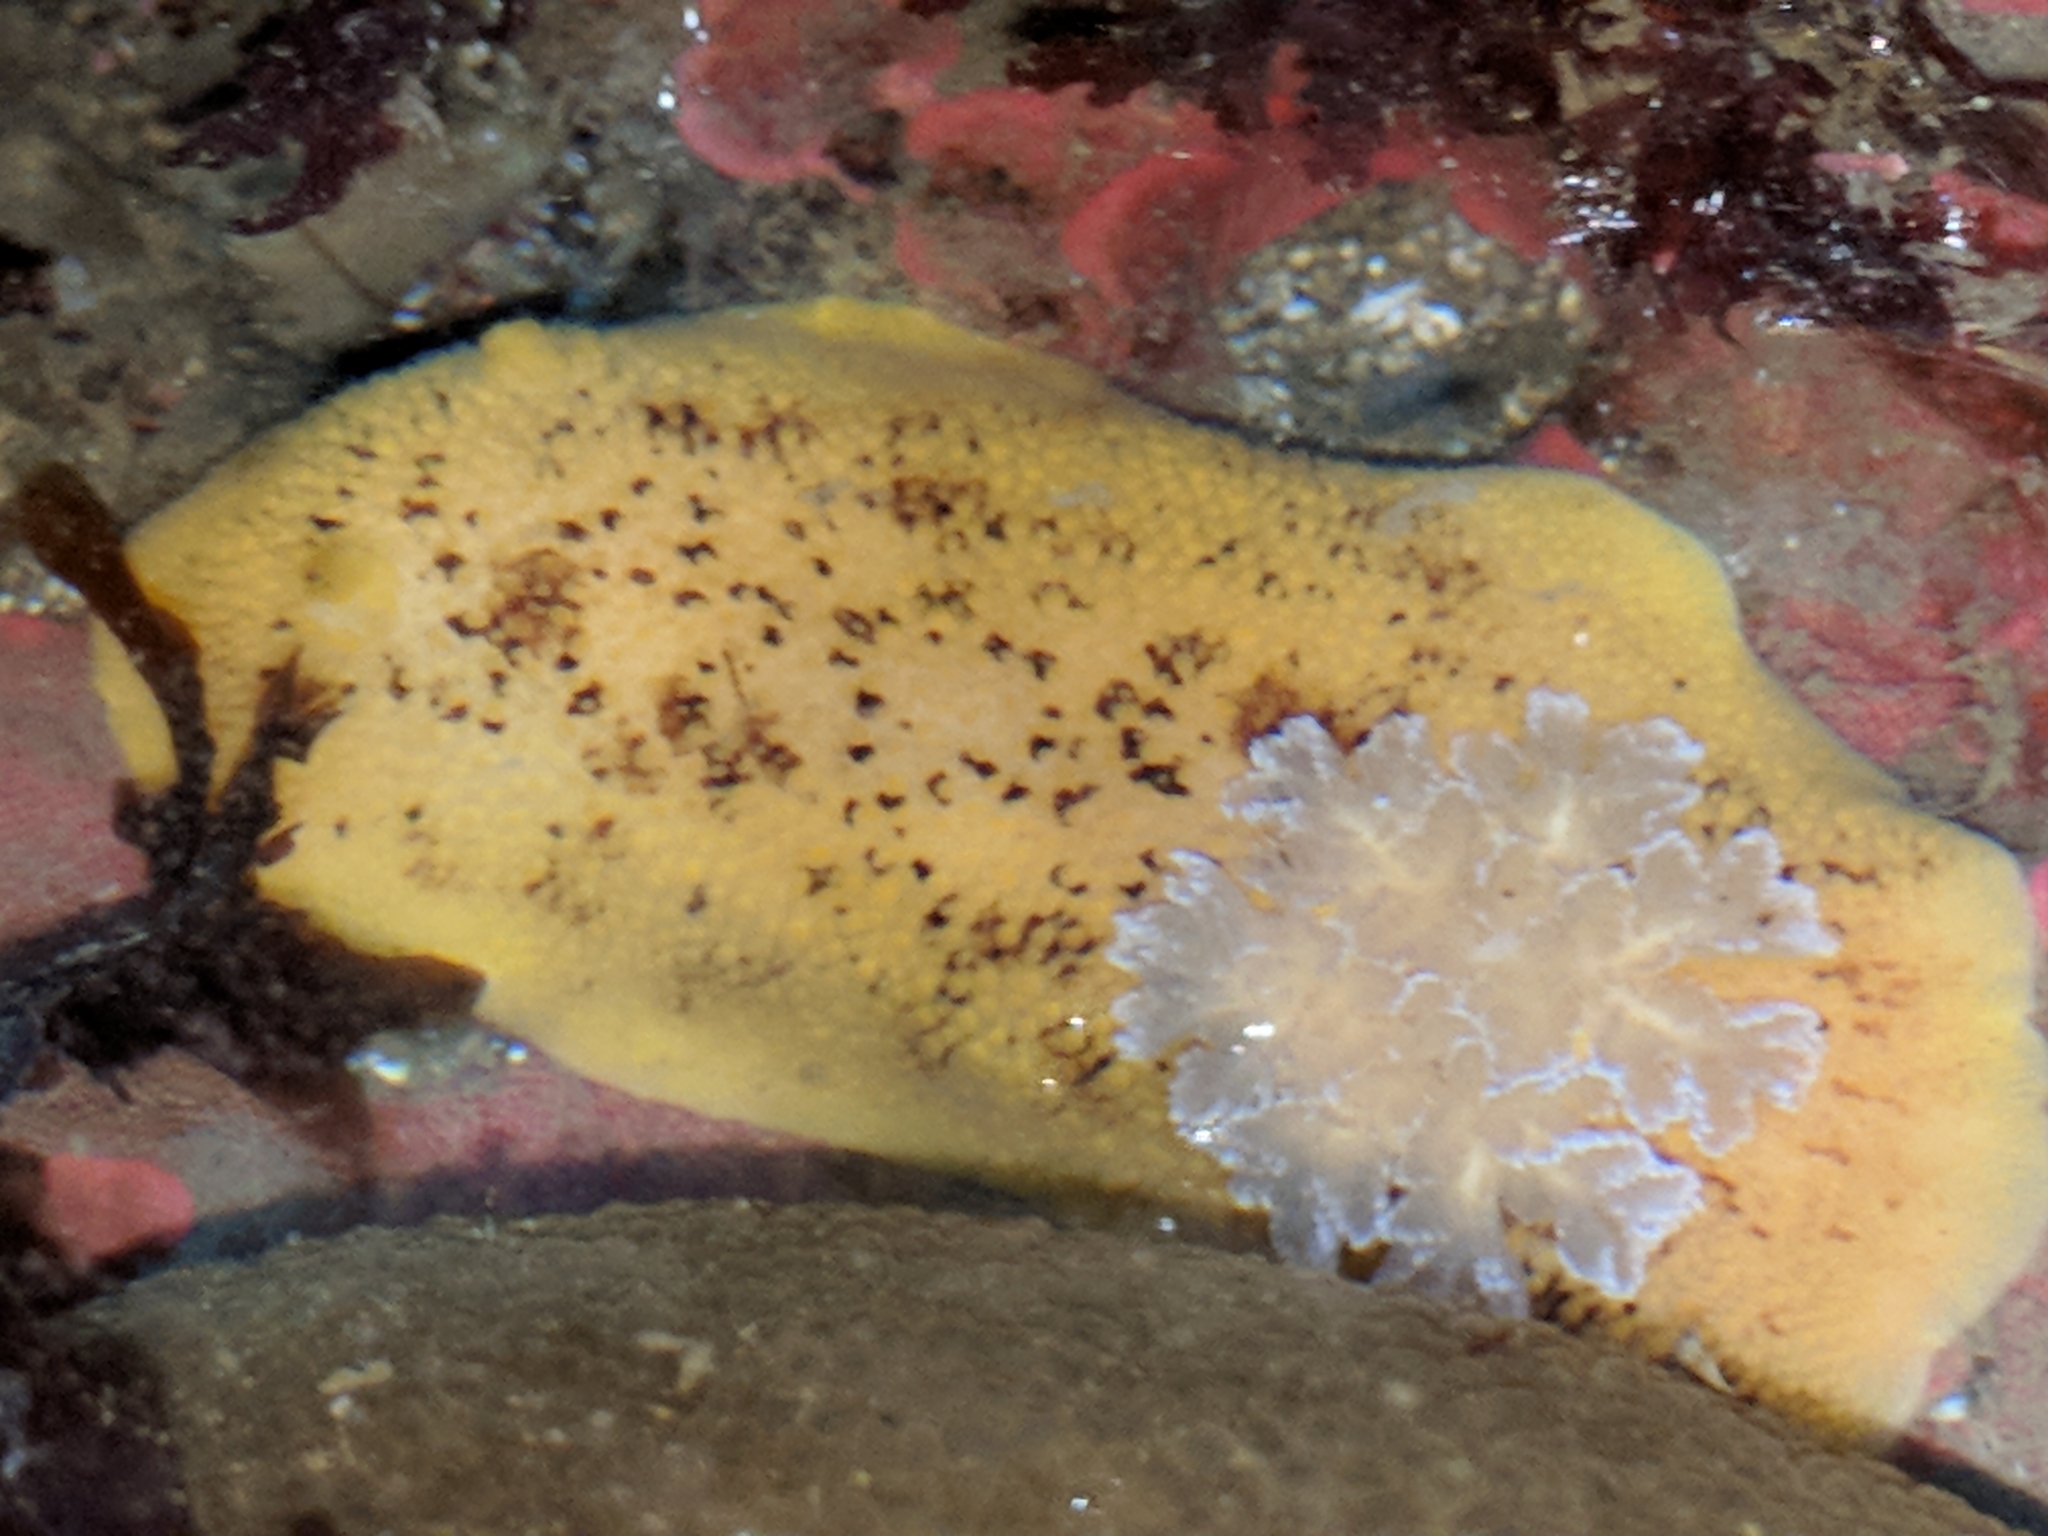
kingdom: Animalia
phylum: Mollusca
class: Gastropoda
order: Nudibranchia
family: Discodorididae
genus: Peltodoris
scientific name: Peltodoris nobilis
